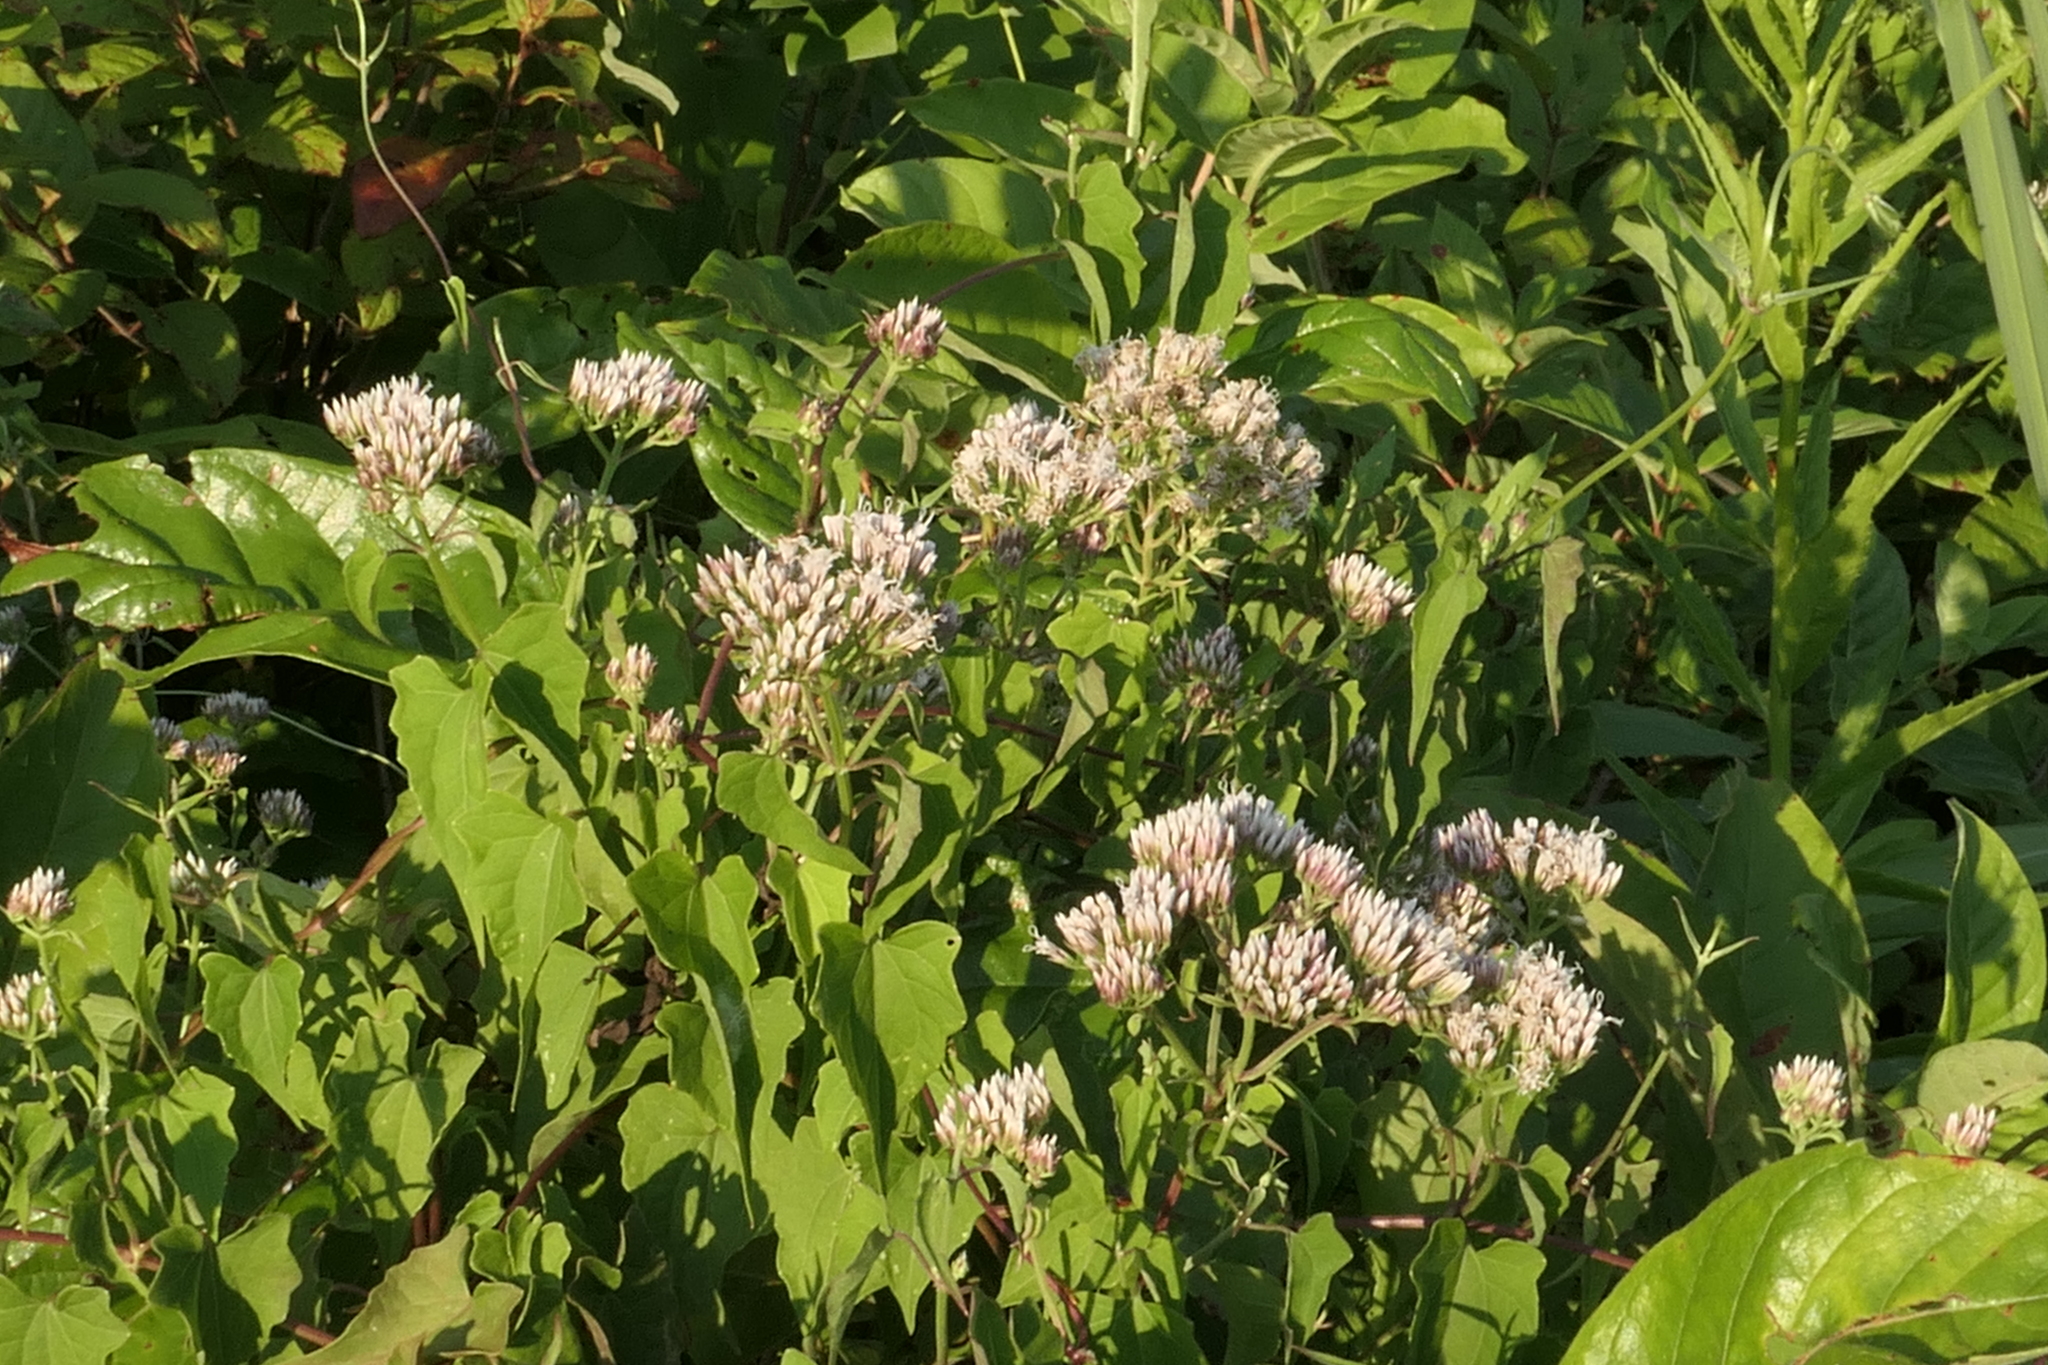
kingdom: Plantae
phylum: Tracheophyta
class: Magnoliopsida
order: Asterales
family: Asteraceae
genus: Mikania
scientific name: Mikania scandens
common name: Climbing hempvine
